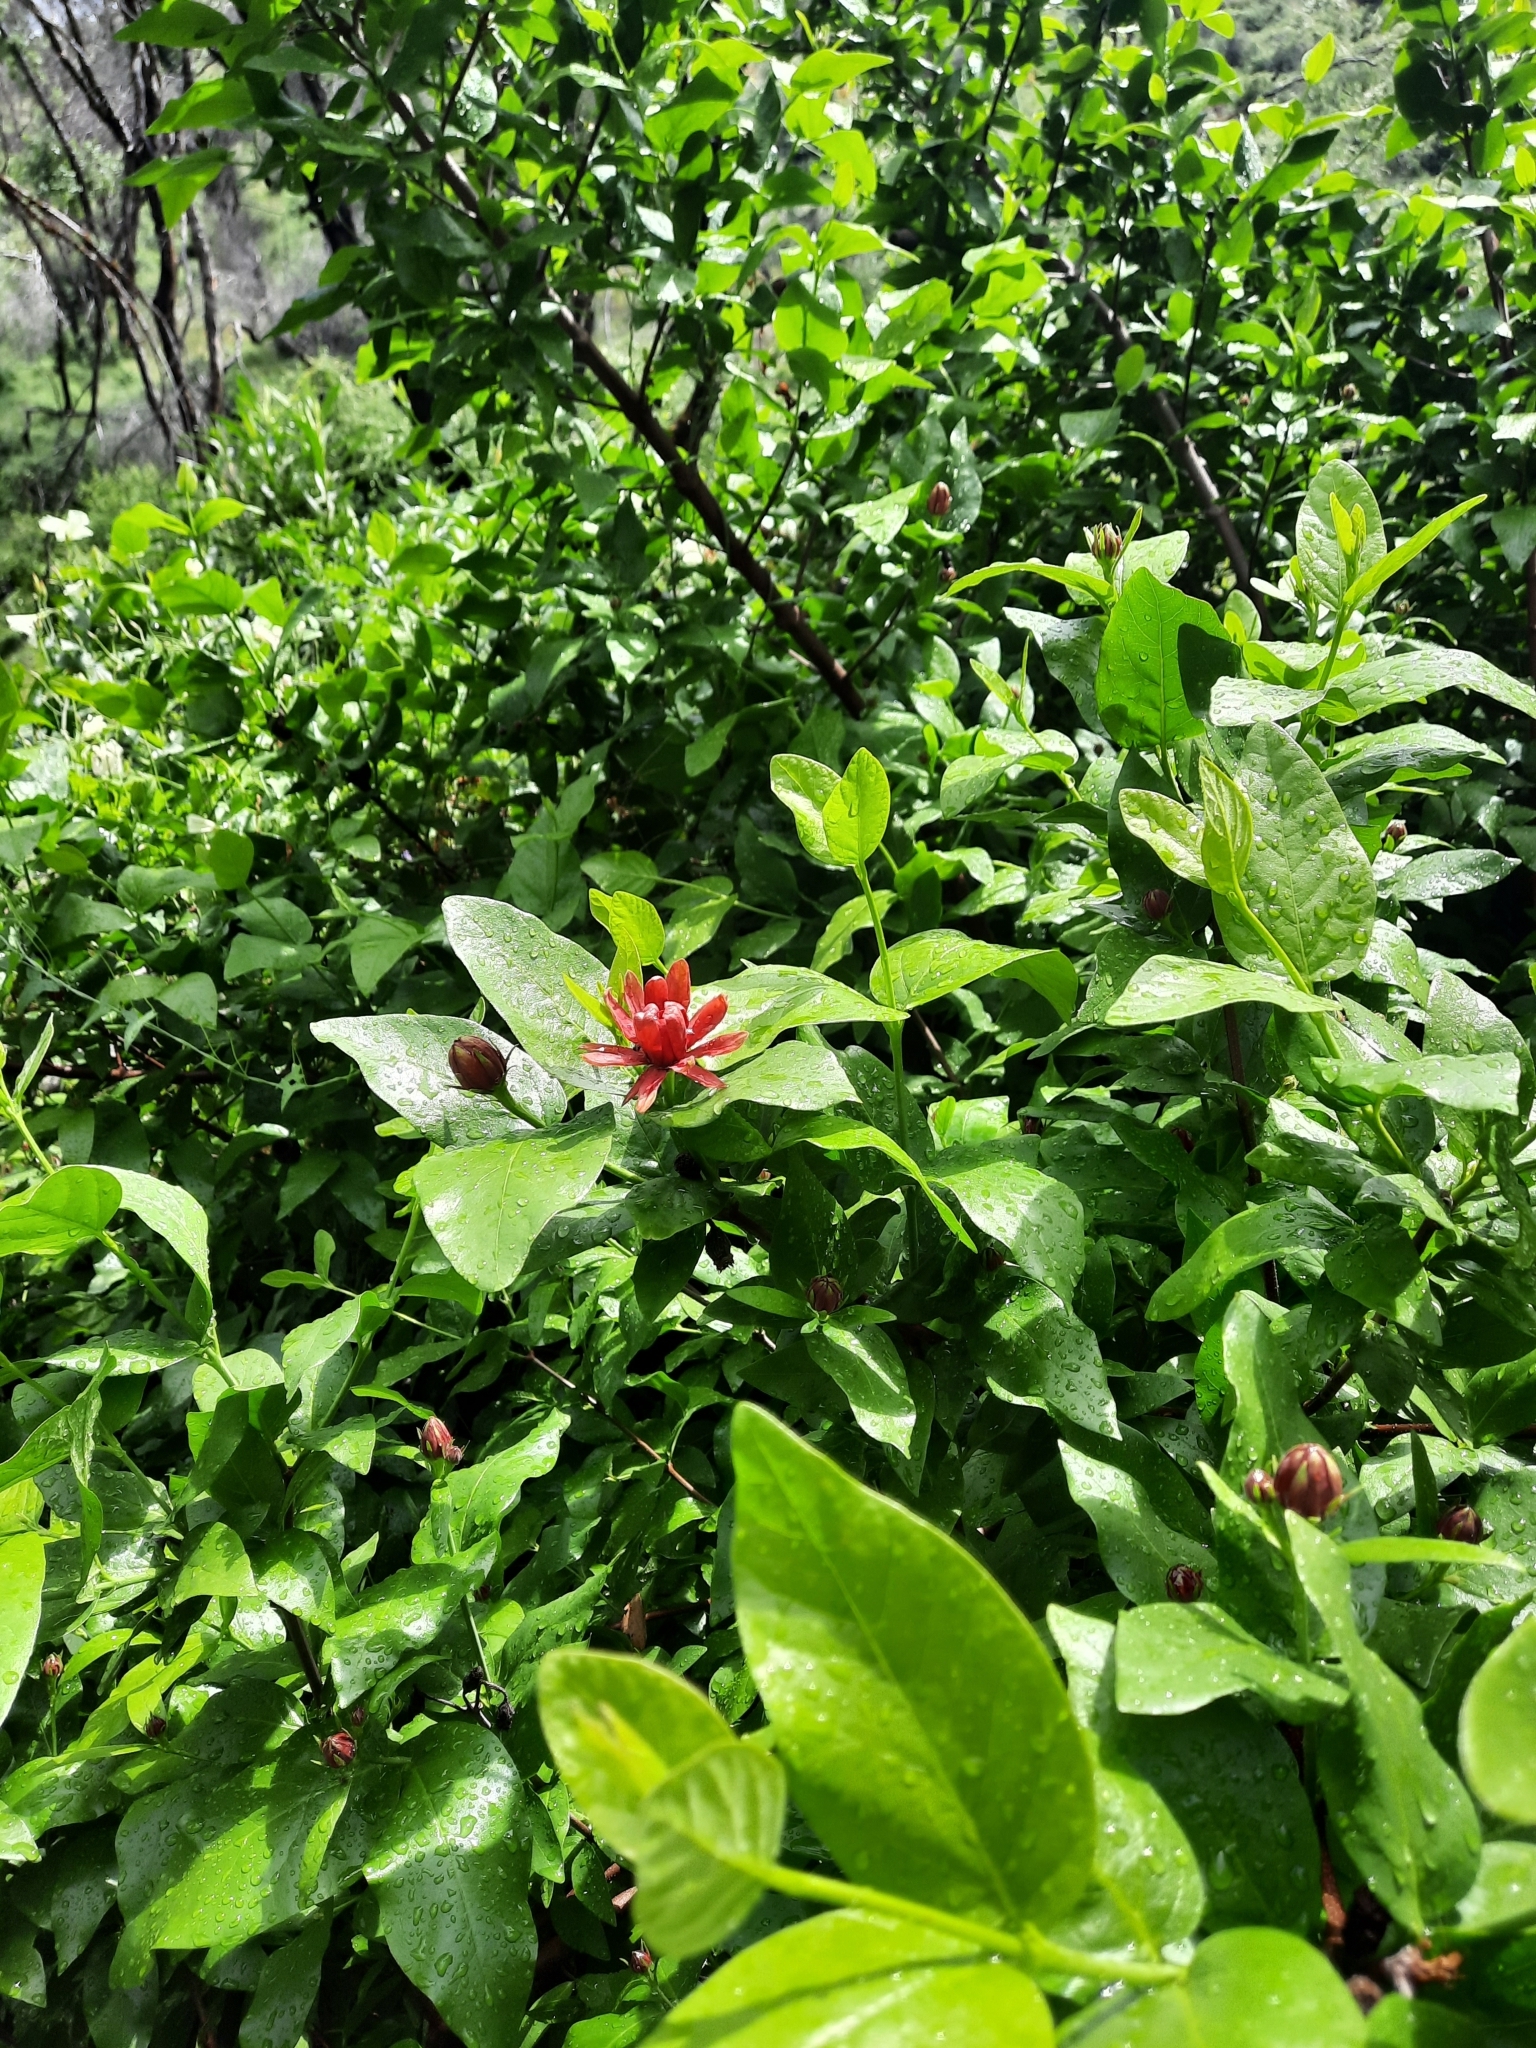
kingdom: Plantae
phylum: Tracheophyta
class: Magnoliopsida
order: Laurales
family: Calycanthaceae
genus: Calycanthus
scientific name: Calycanthus occidentalis
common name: California spicebush
